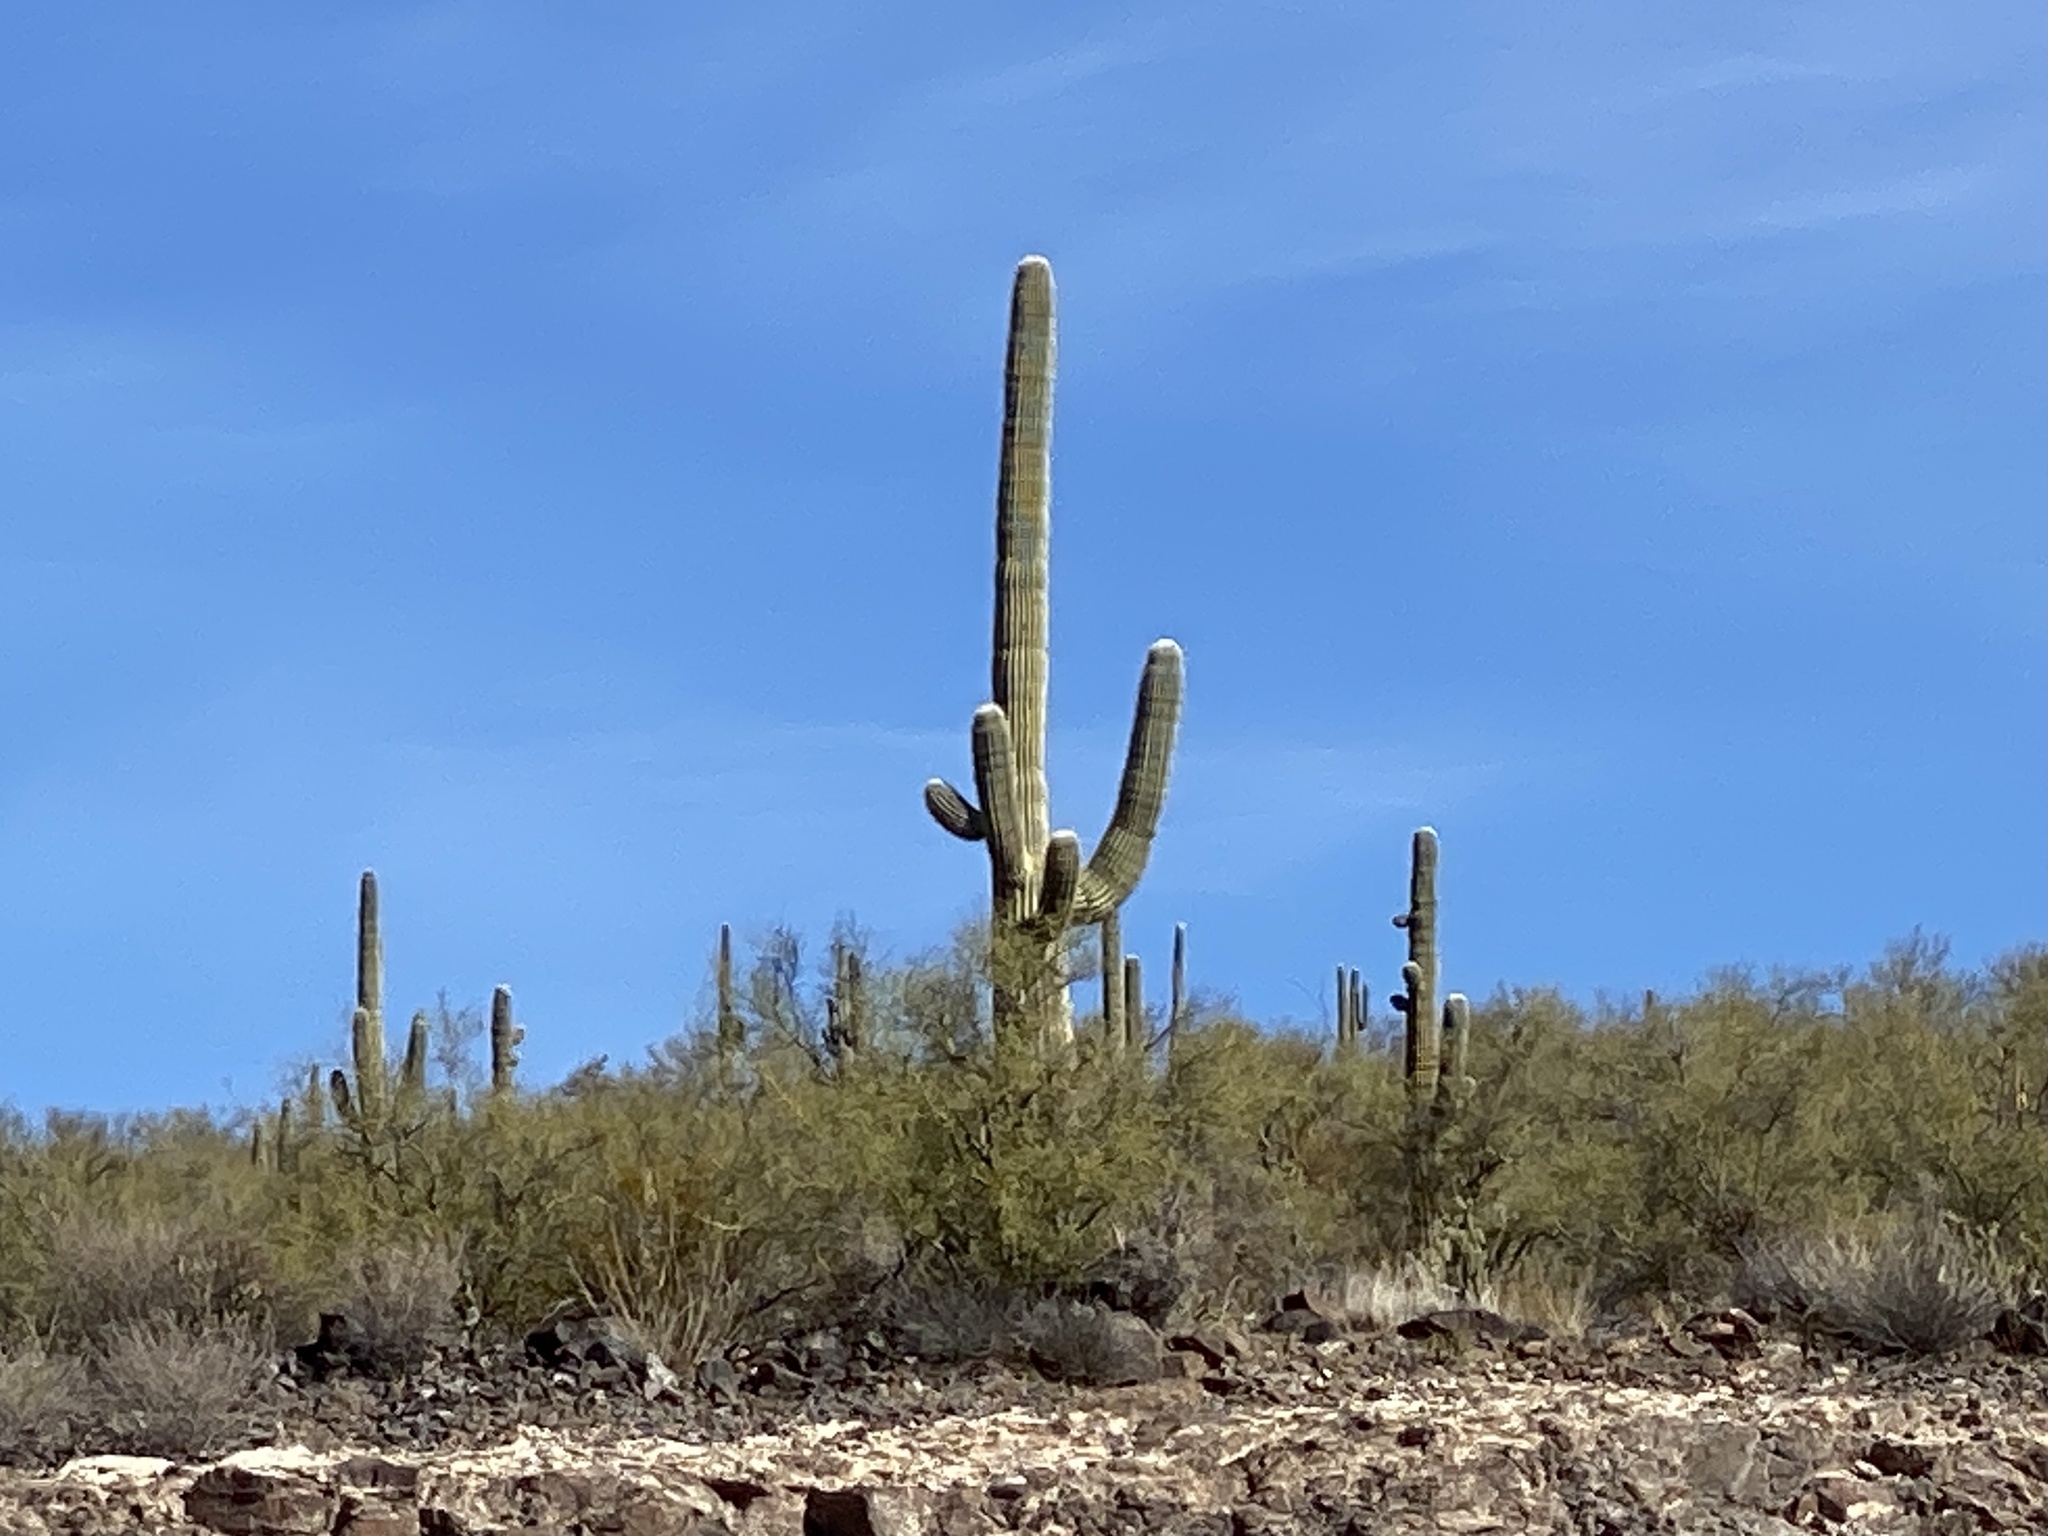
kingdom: Plantae
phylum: Tracheophyta
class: Magnoliopsida
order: Caryophyllales
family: Cactaceae
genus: Carnegiea
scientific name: Carnegiea gigantea
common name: Saguaro
